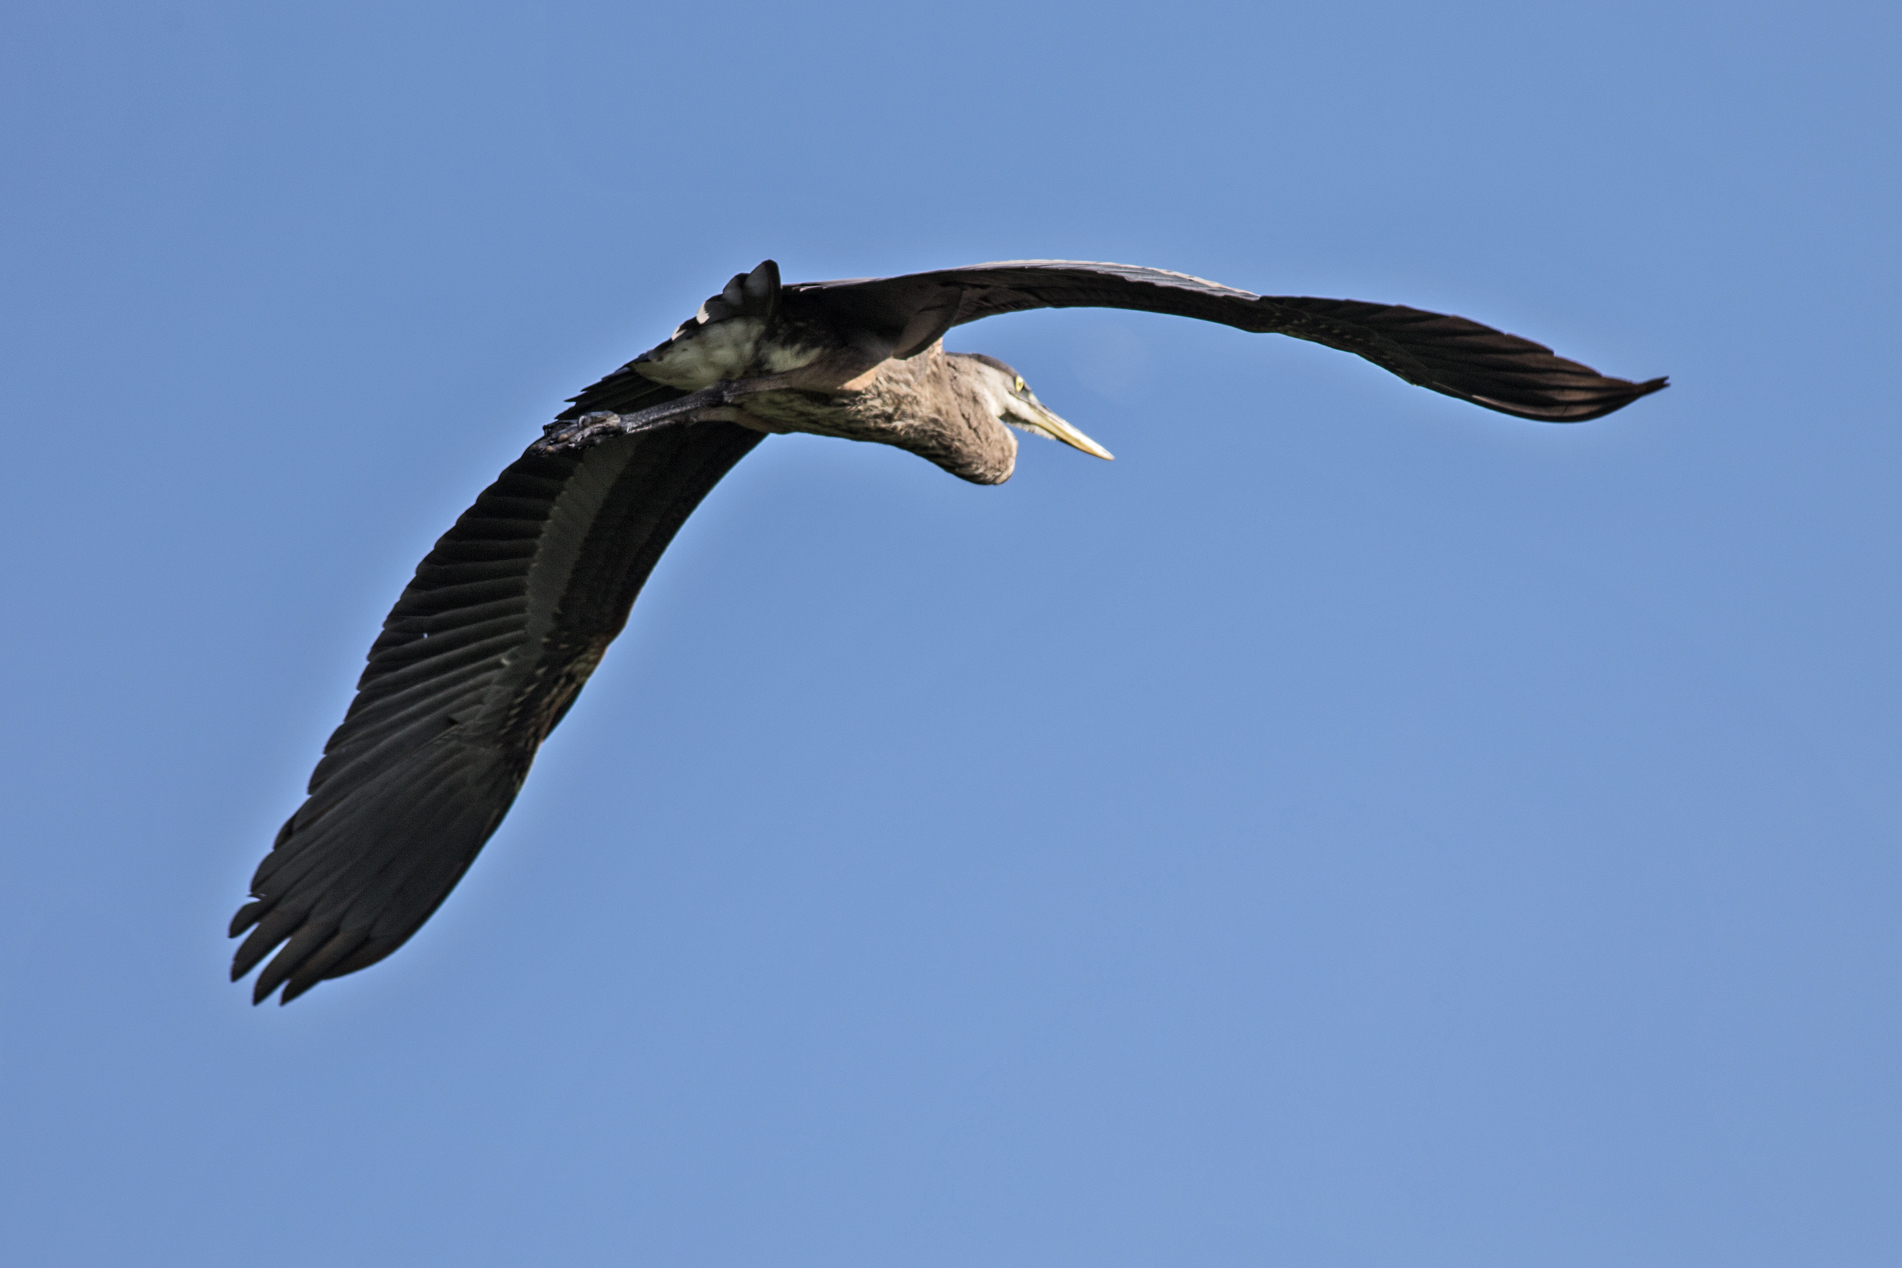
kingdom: Animalia
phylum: Chordata
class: Aves
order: Pelecaniformes
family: Ardeidae
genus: Ardea
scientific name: Ardea herodias
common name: Great blue heron
